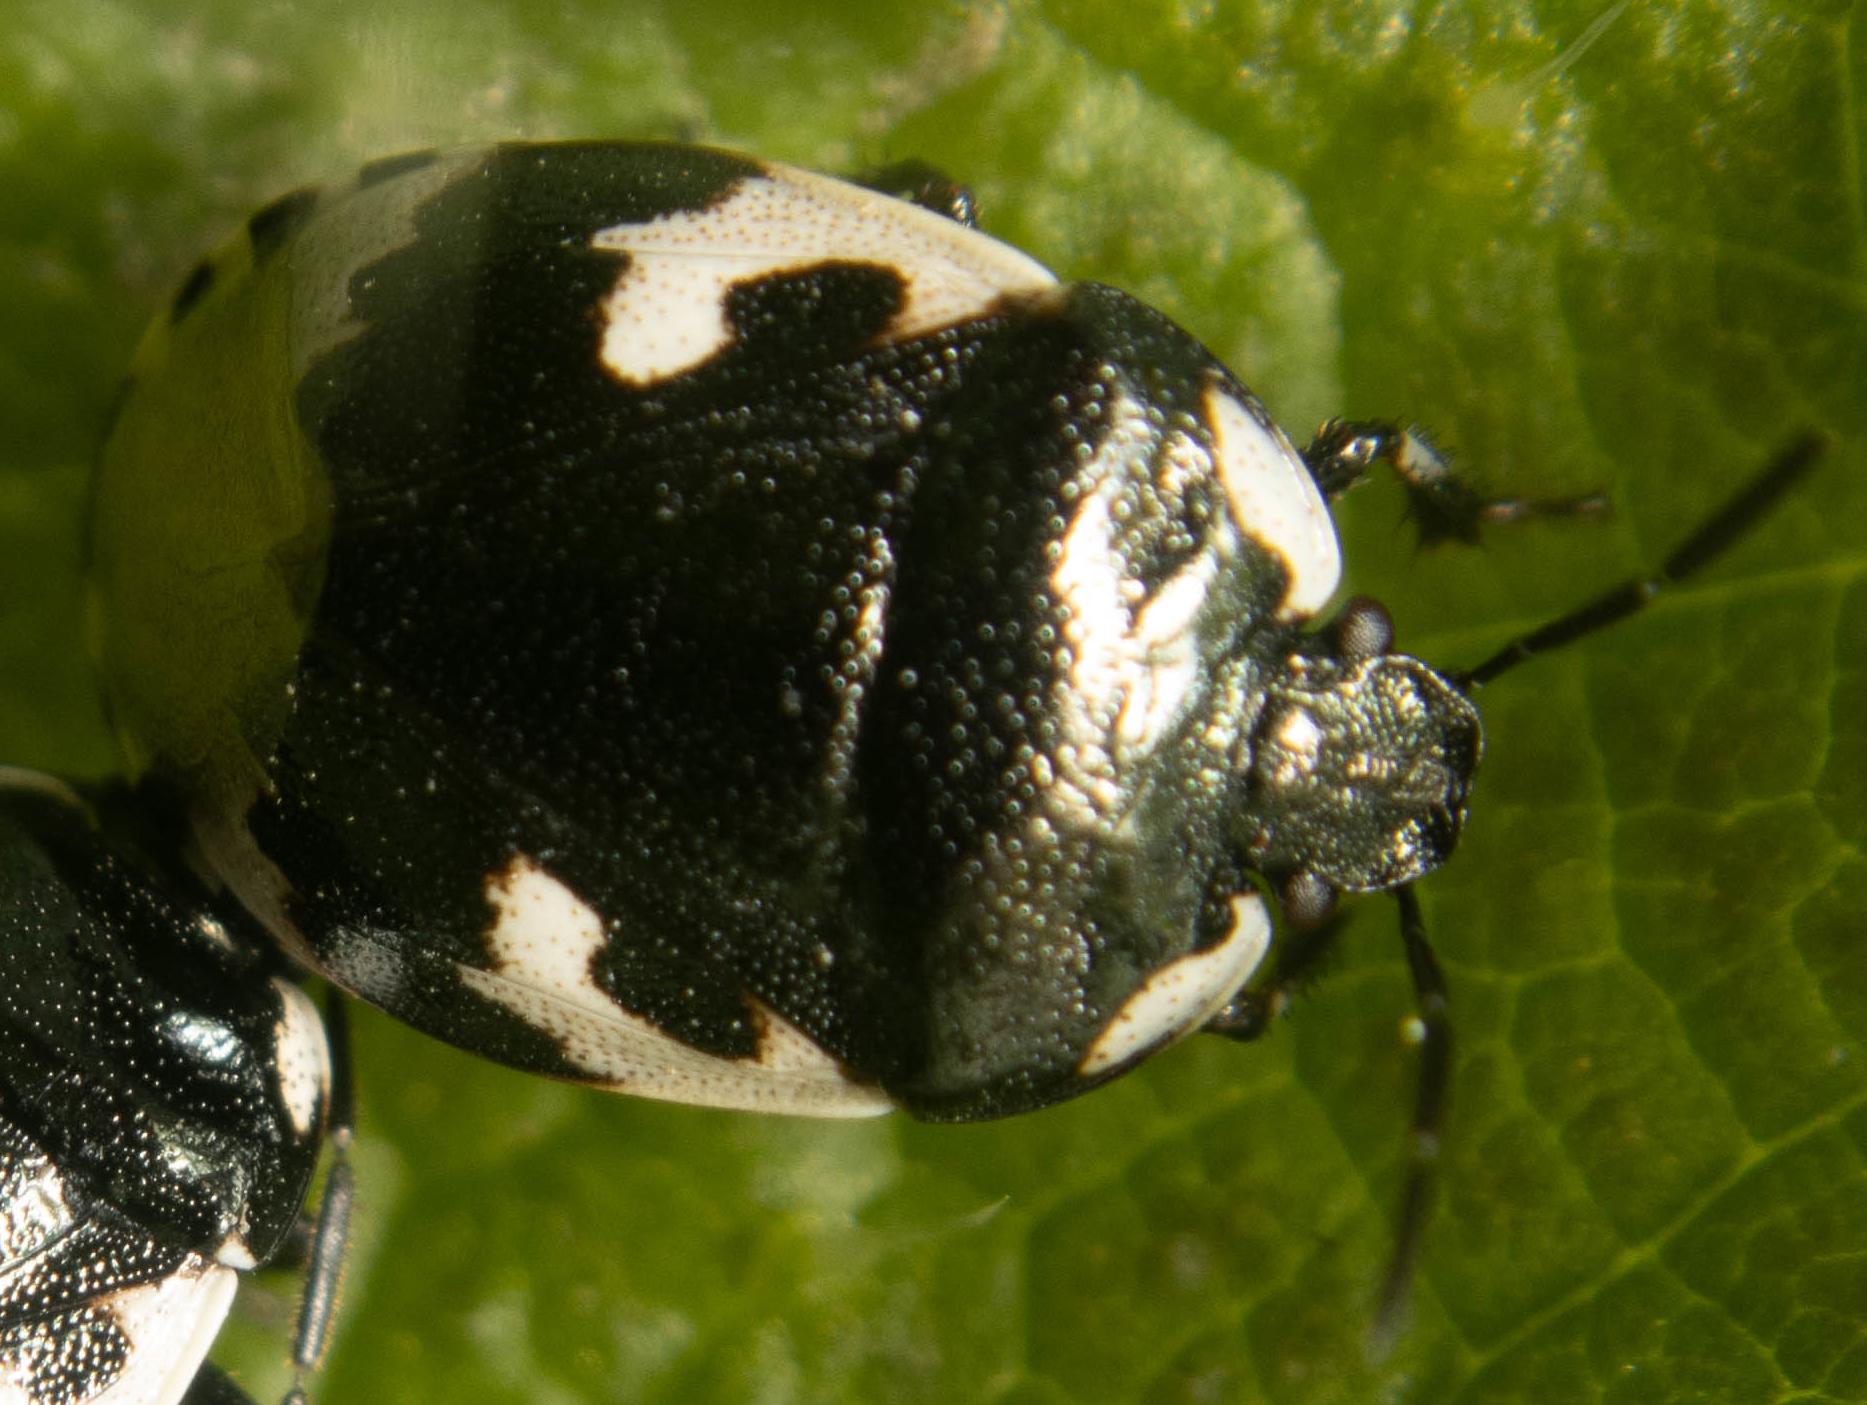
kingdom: Animalia
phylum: Arthropoda
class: Insecta
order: Hemiptera
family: Cydnidae
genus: Tritomegas
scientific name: Tritomegas bicolor
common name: Pied shieldbug
